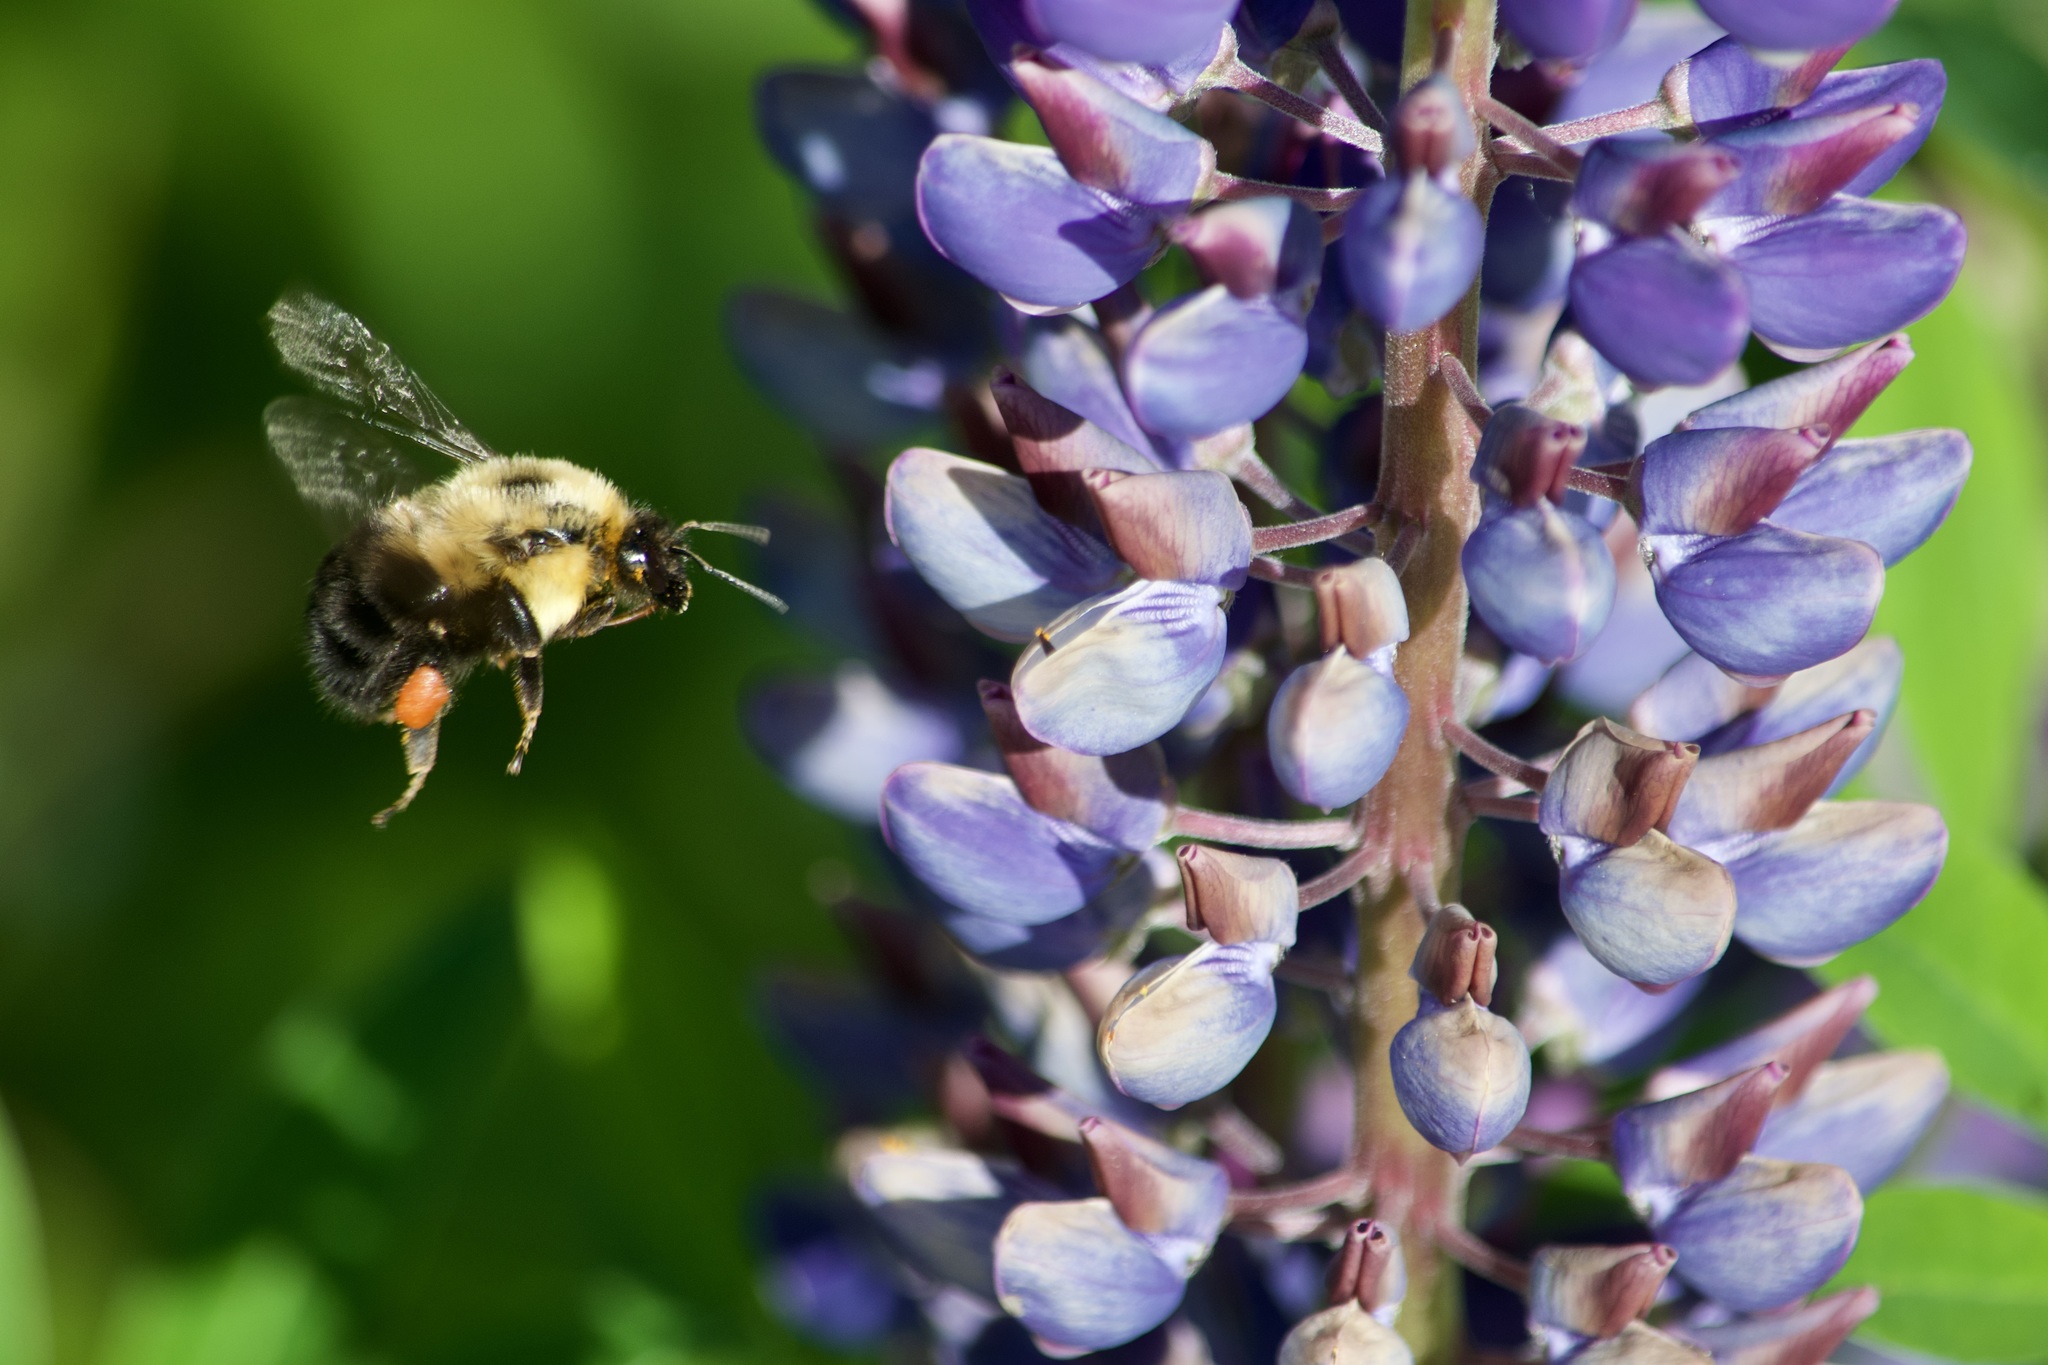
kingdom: Animalia
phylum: Arthropoda
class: Insecta
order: Hymenoptera
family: Apidae
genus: Bombus
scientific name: Bombus bimaculatus
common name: Two-spotted bumble bee
